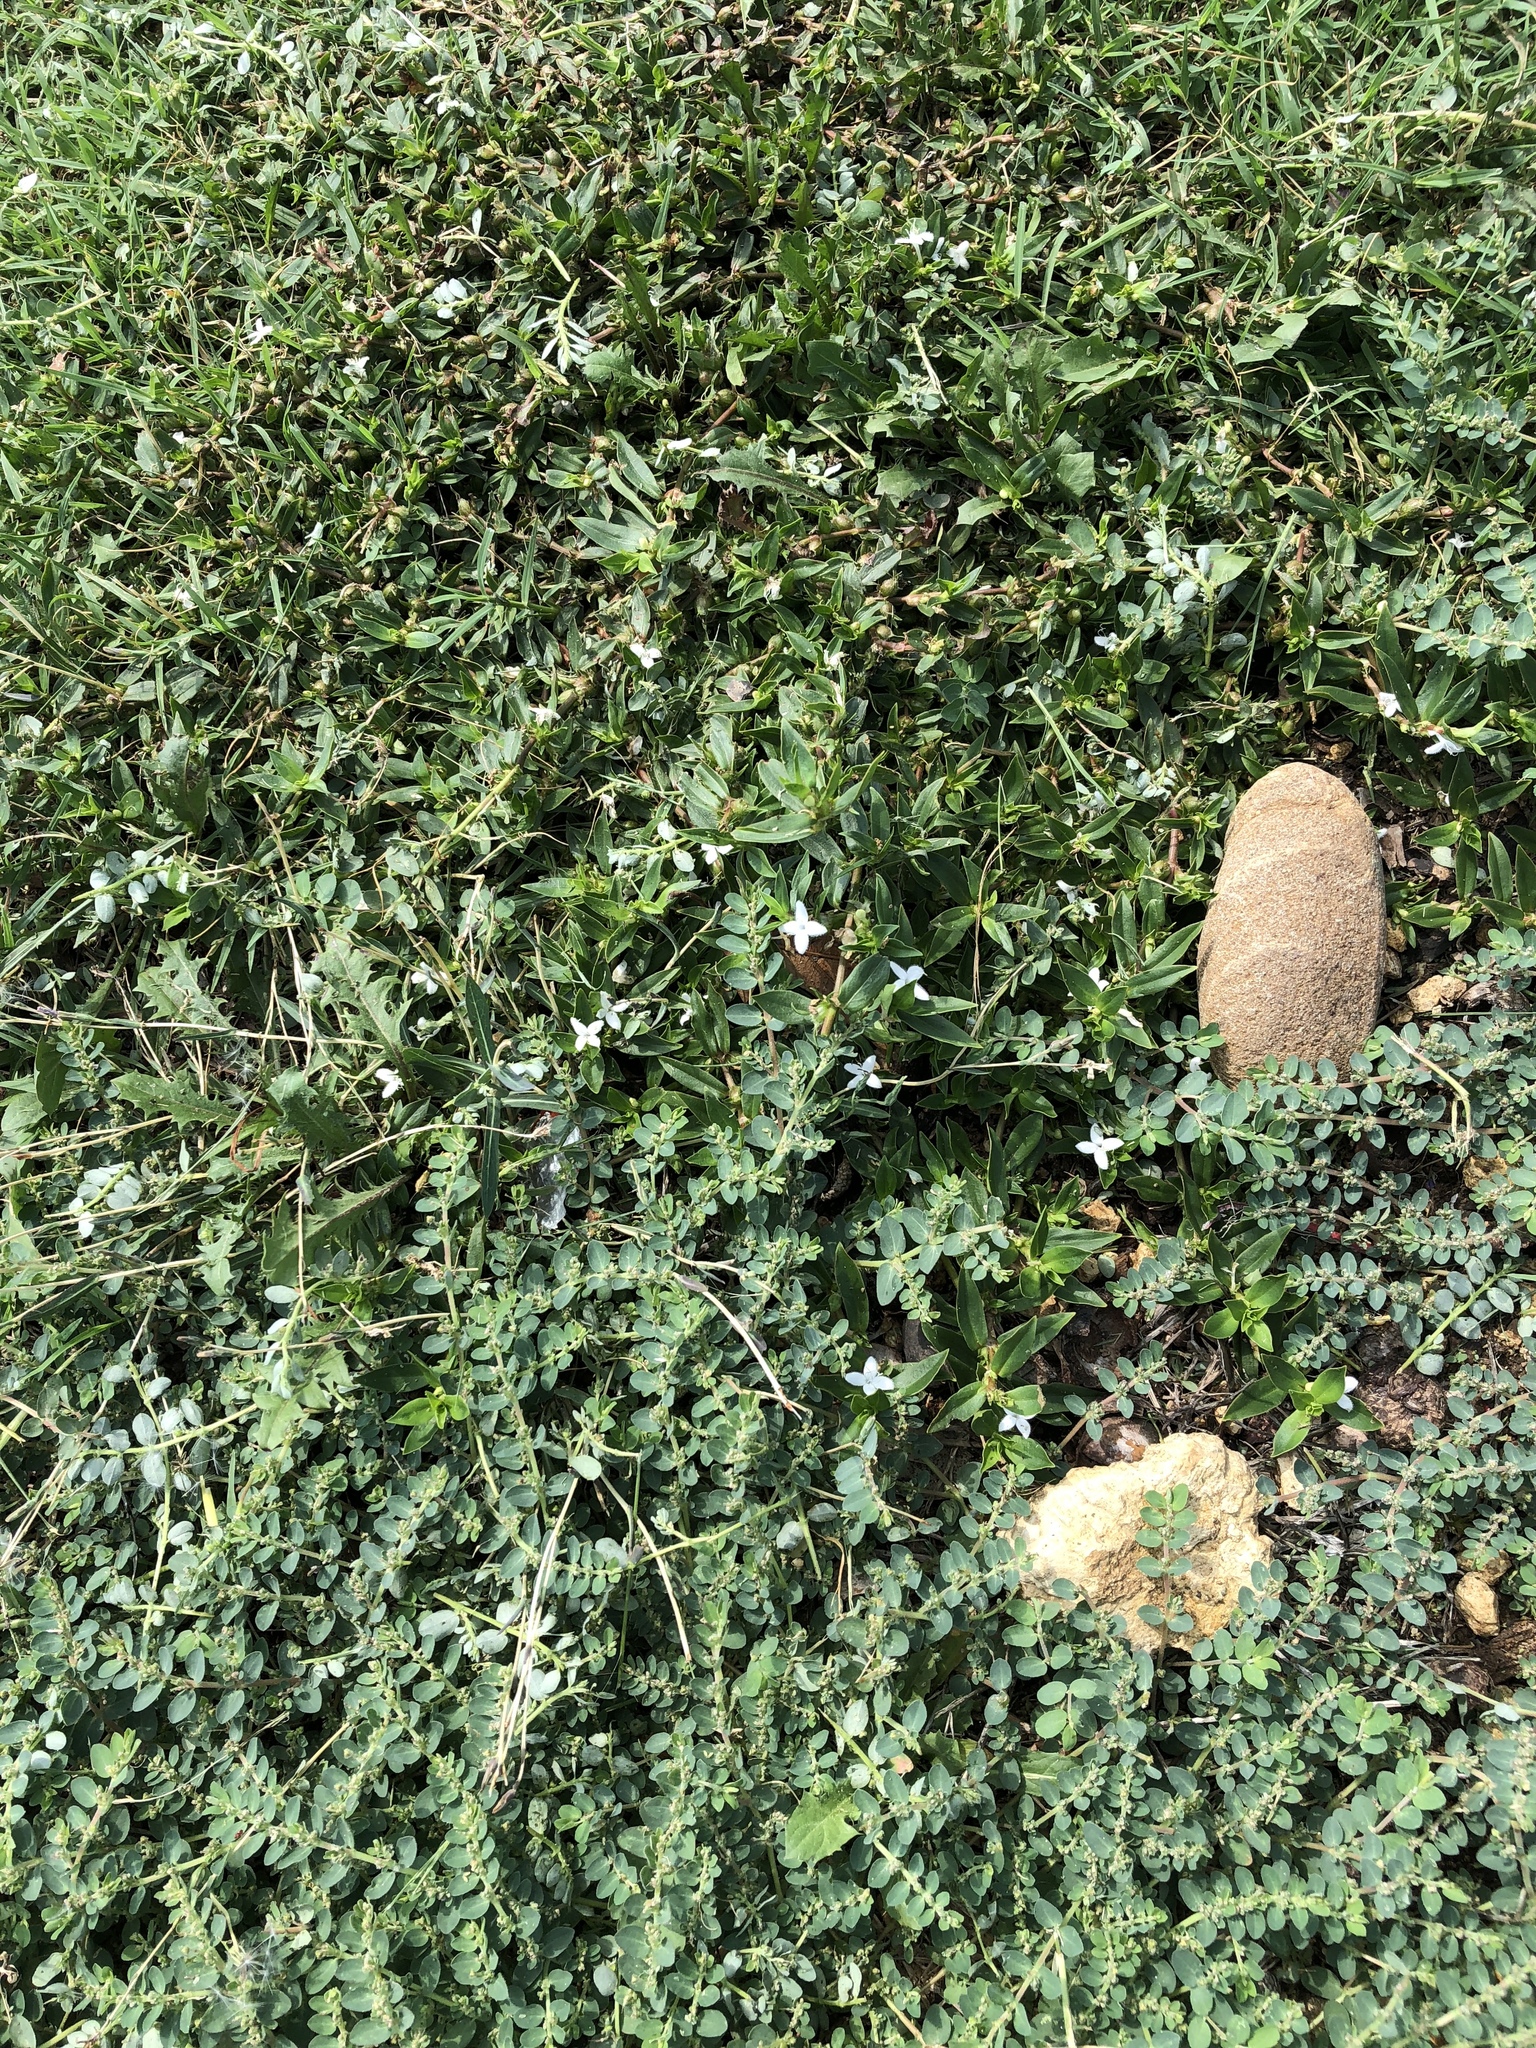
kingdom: Plantae
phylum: Tracheophyta
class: Magnoliopsida
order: Gentianales
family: Rubiaceae
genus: Diodia
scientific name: Diodia virginiana
